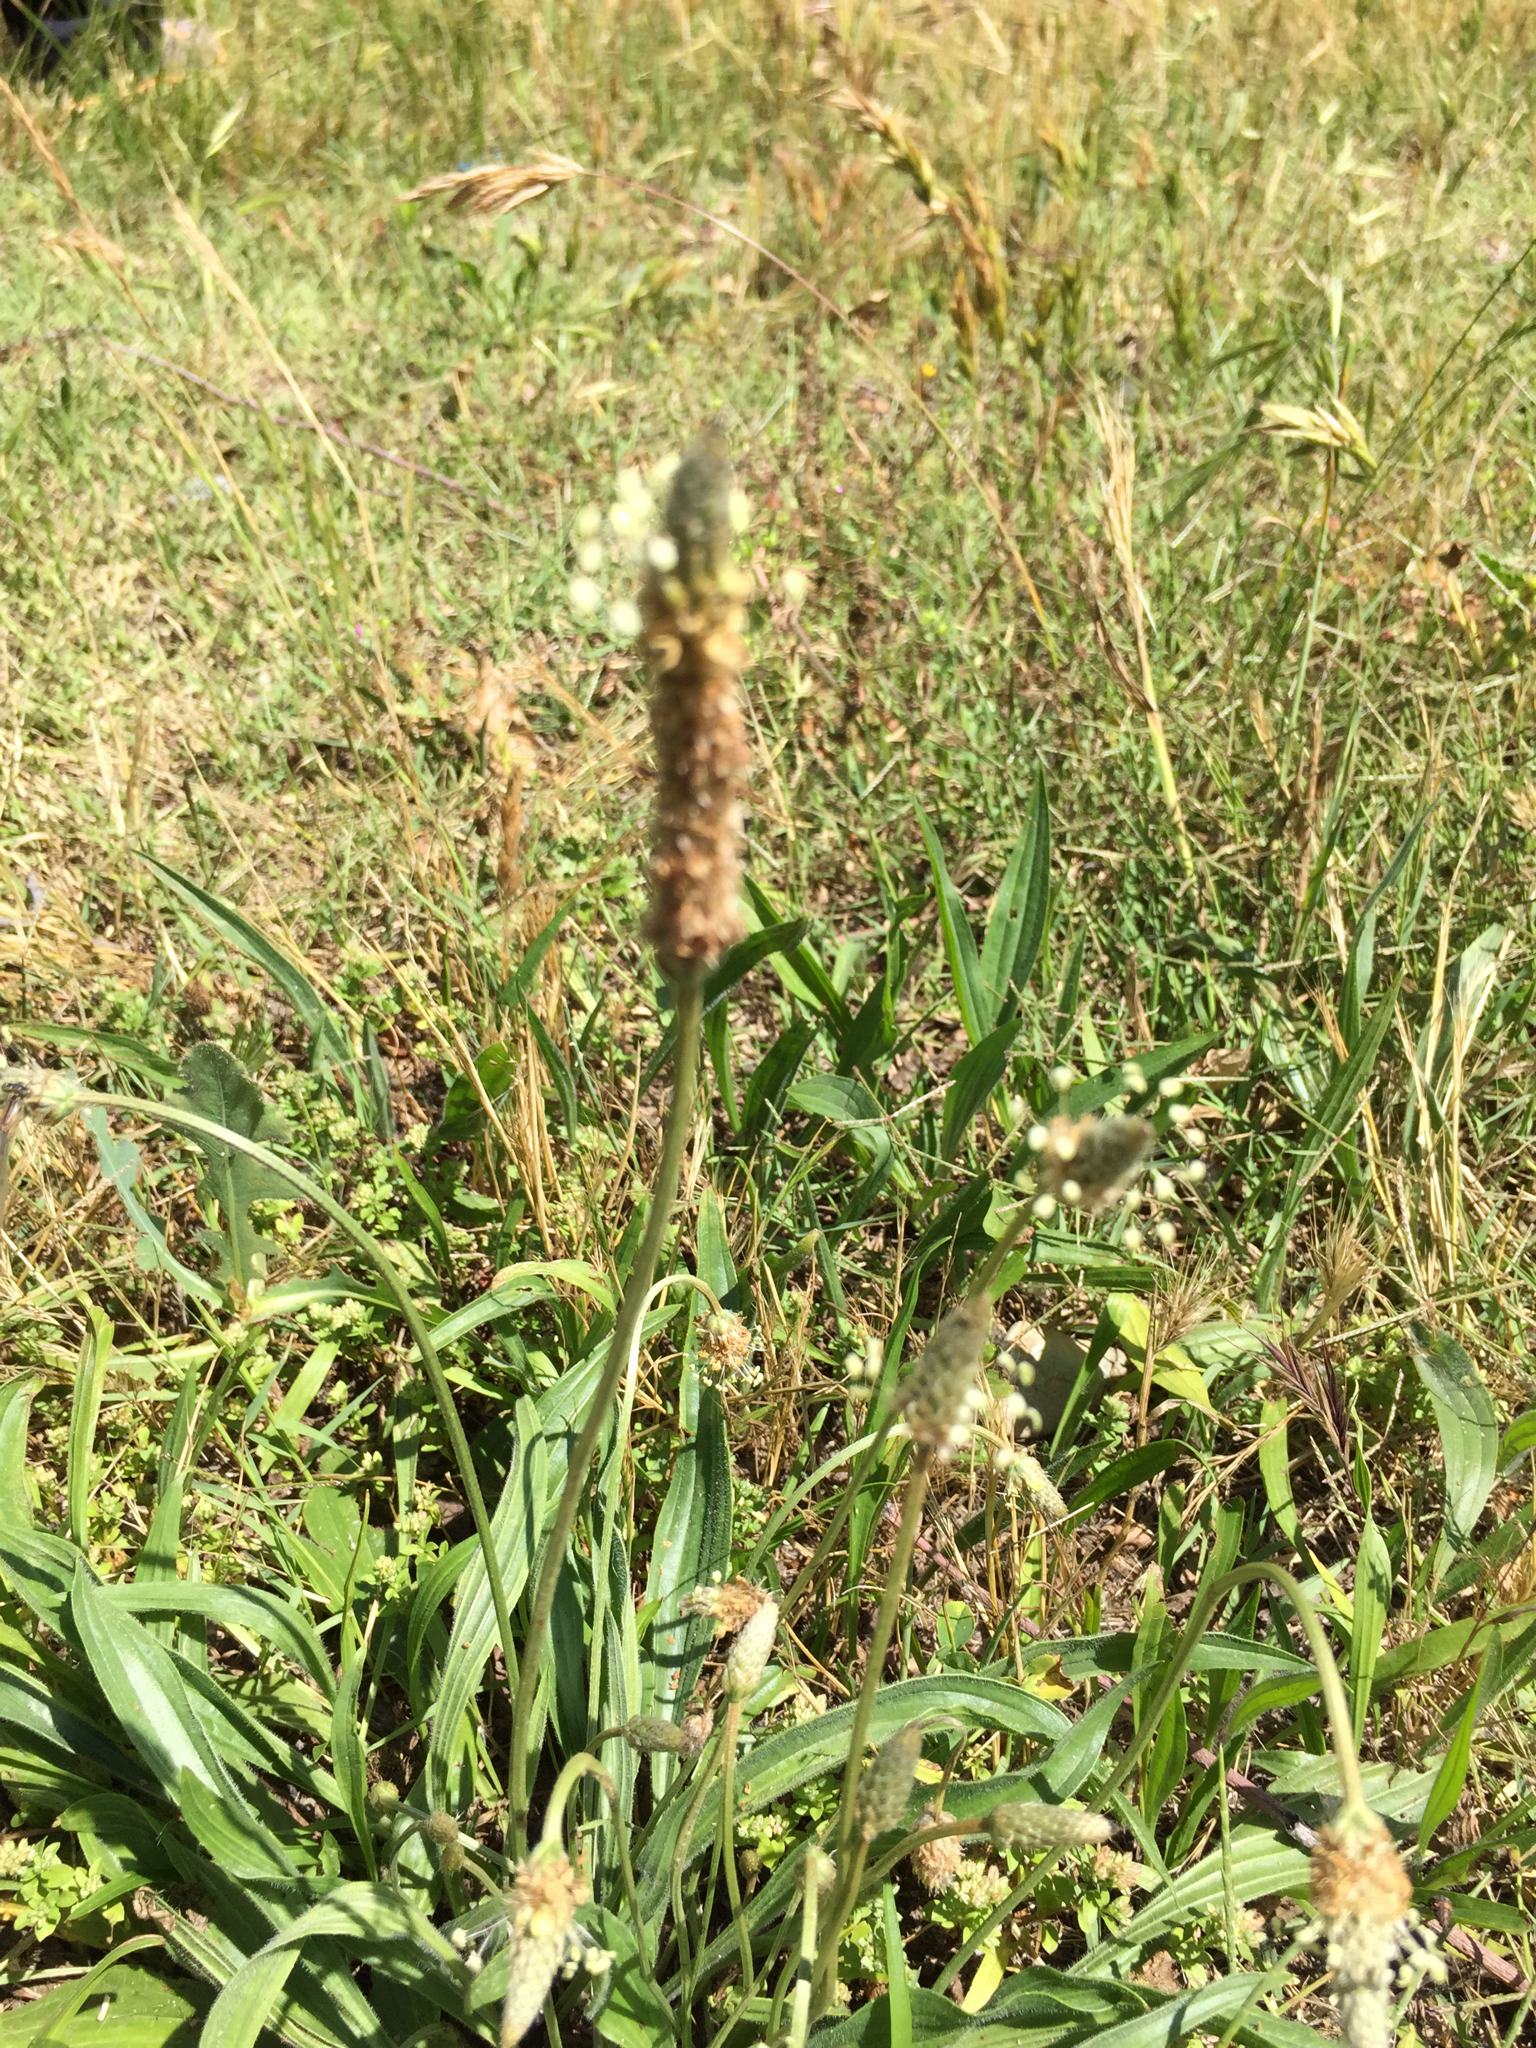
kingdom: Plantae
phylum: Tracheophyta
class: Magnoliopsida
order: Lamiales
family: Plantaginaceae
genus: Plantago
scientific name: Plantago lanceolata
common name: Ribwort plantain
